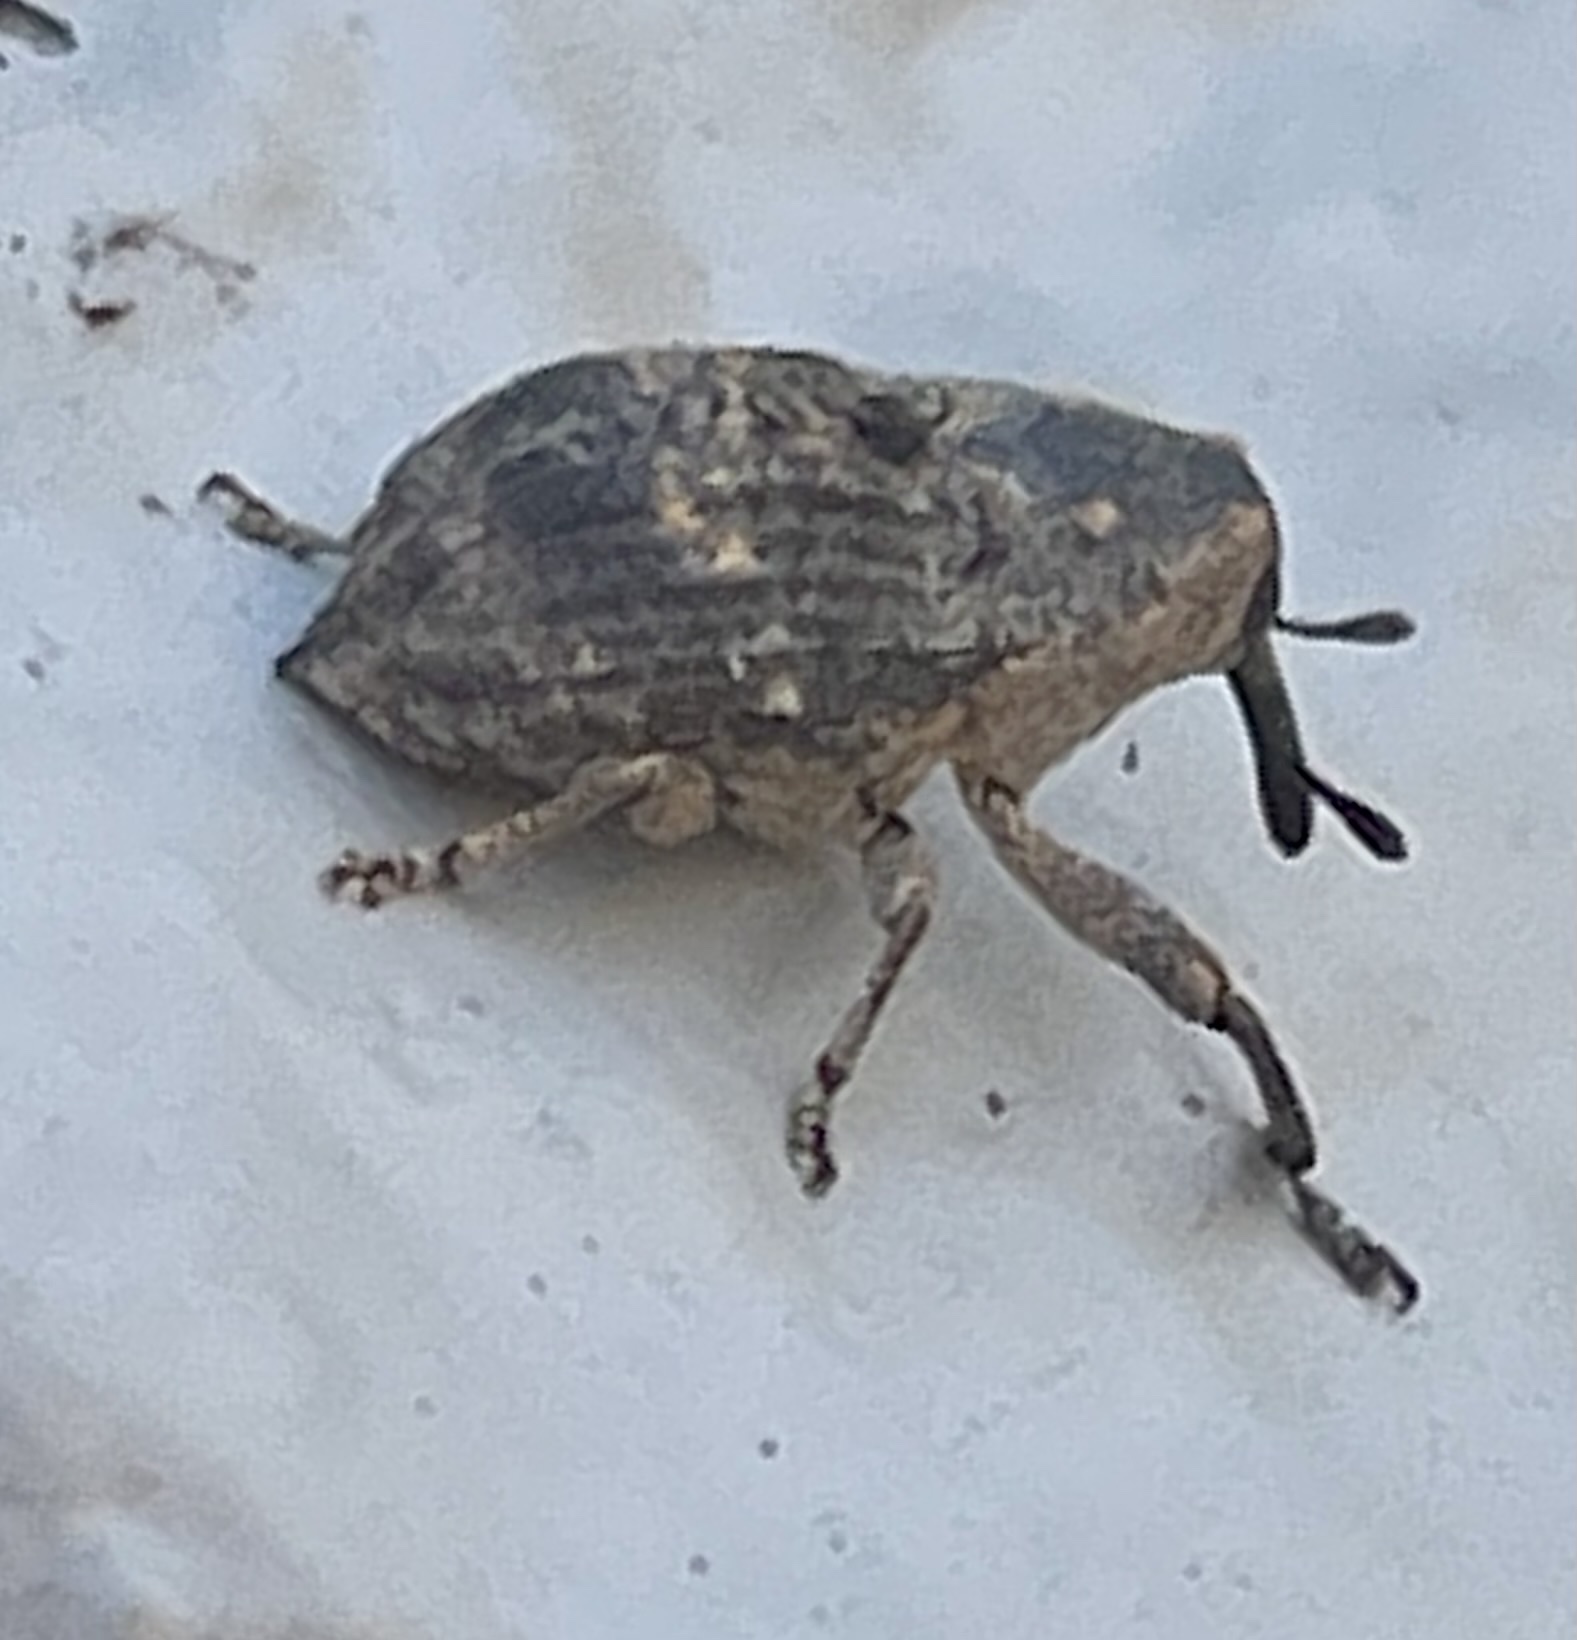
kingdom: Animalia
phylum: Arthropoda
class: Insecta
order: Coleoptera
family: Curculionidae
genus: Eutyrhinus
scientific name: Eutyrhinus meditabundus
